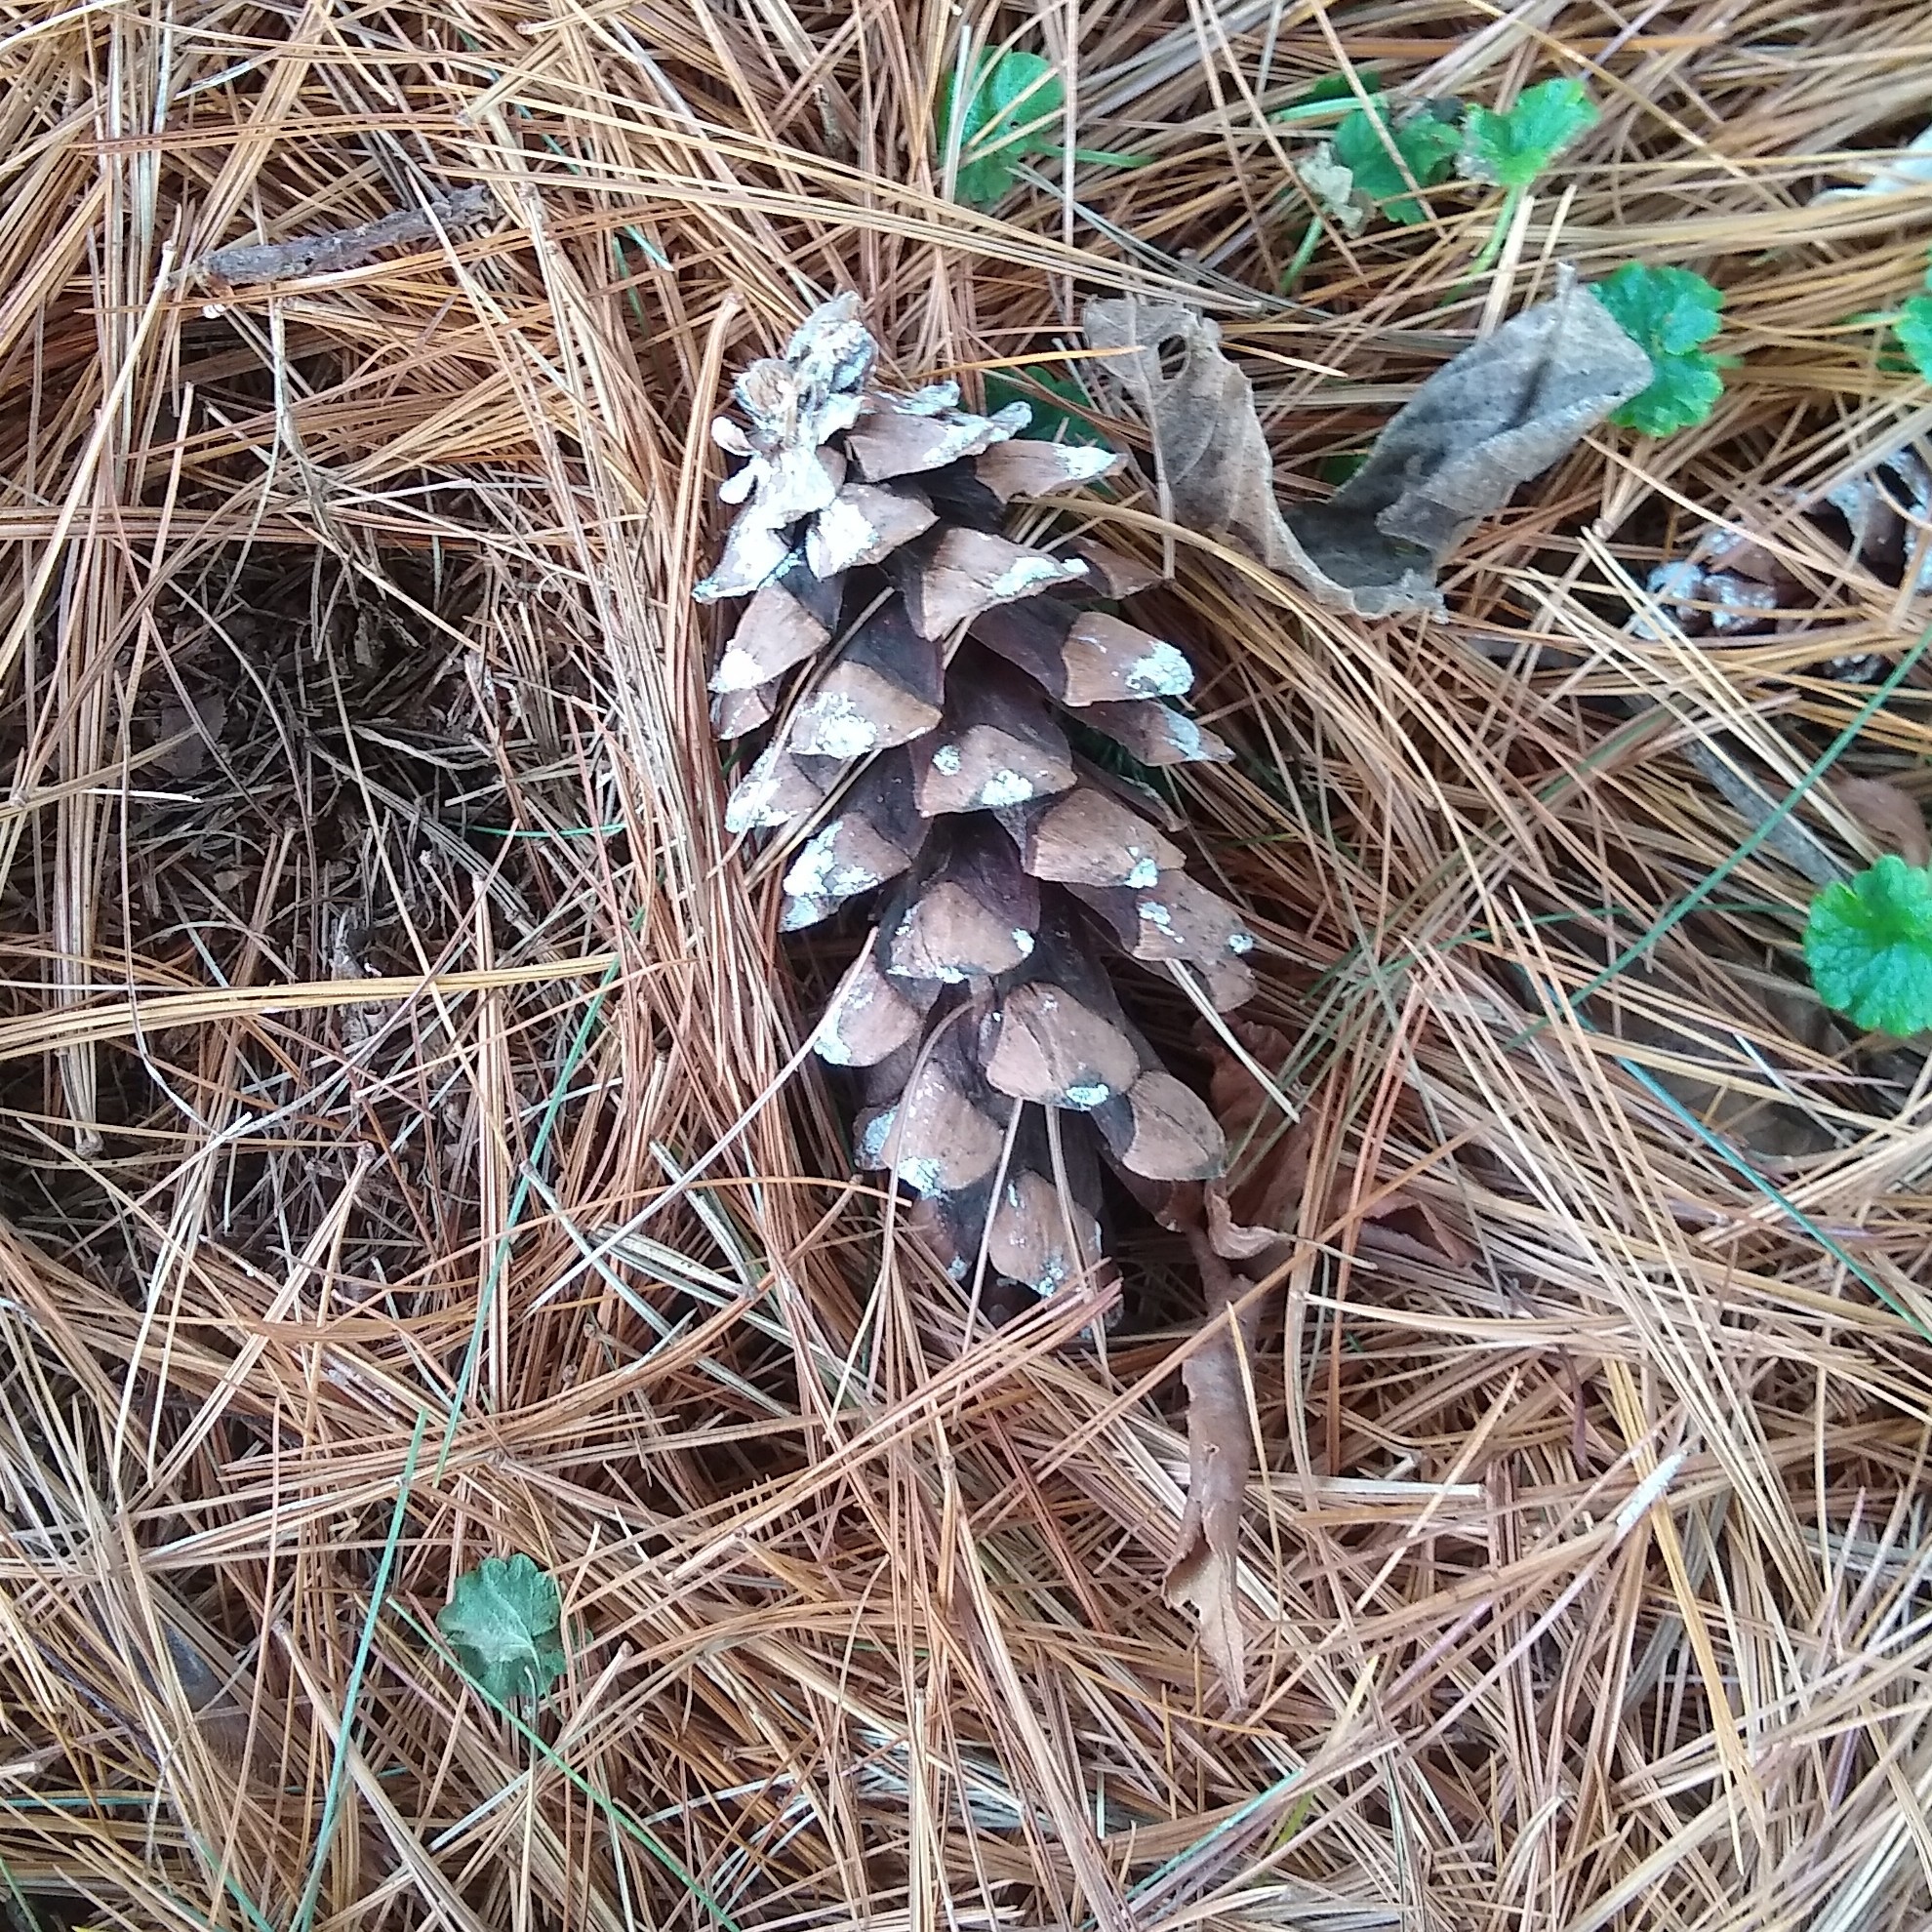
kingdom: Plantae
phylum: Tracheophyta
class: Pinopsida
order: Pinales
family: Pinaceae
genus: Pinus
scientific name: Pinus strobus
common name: Weymouth pine
